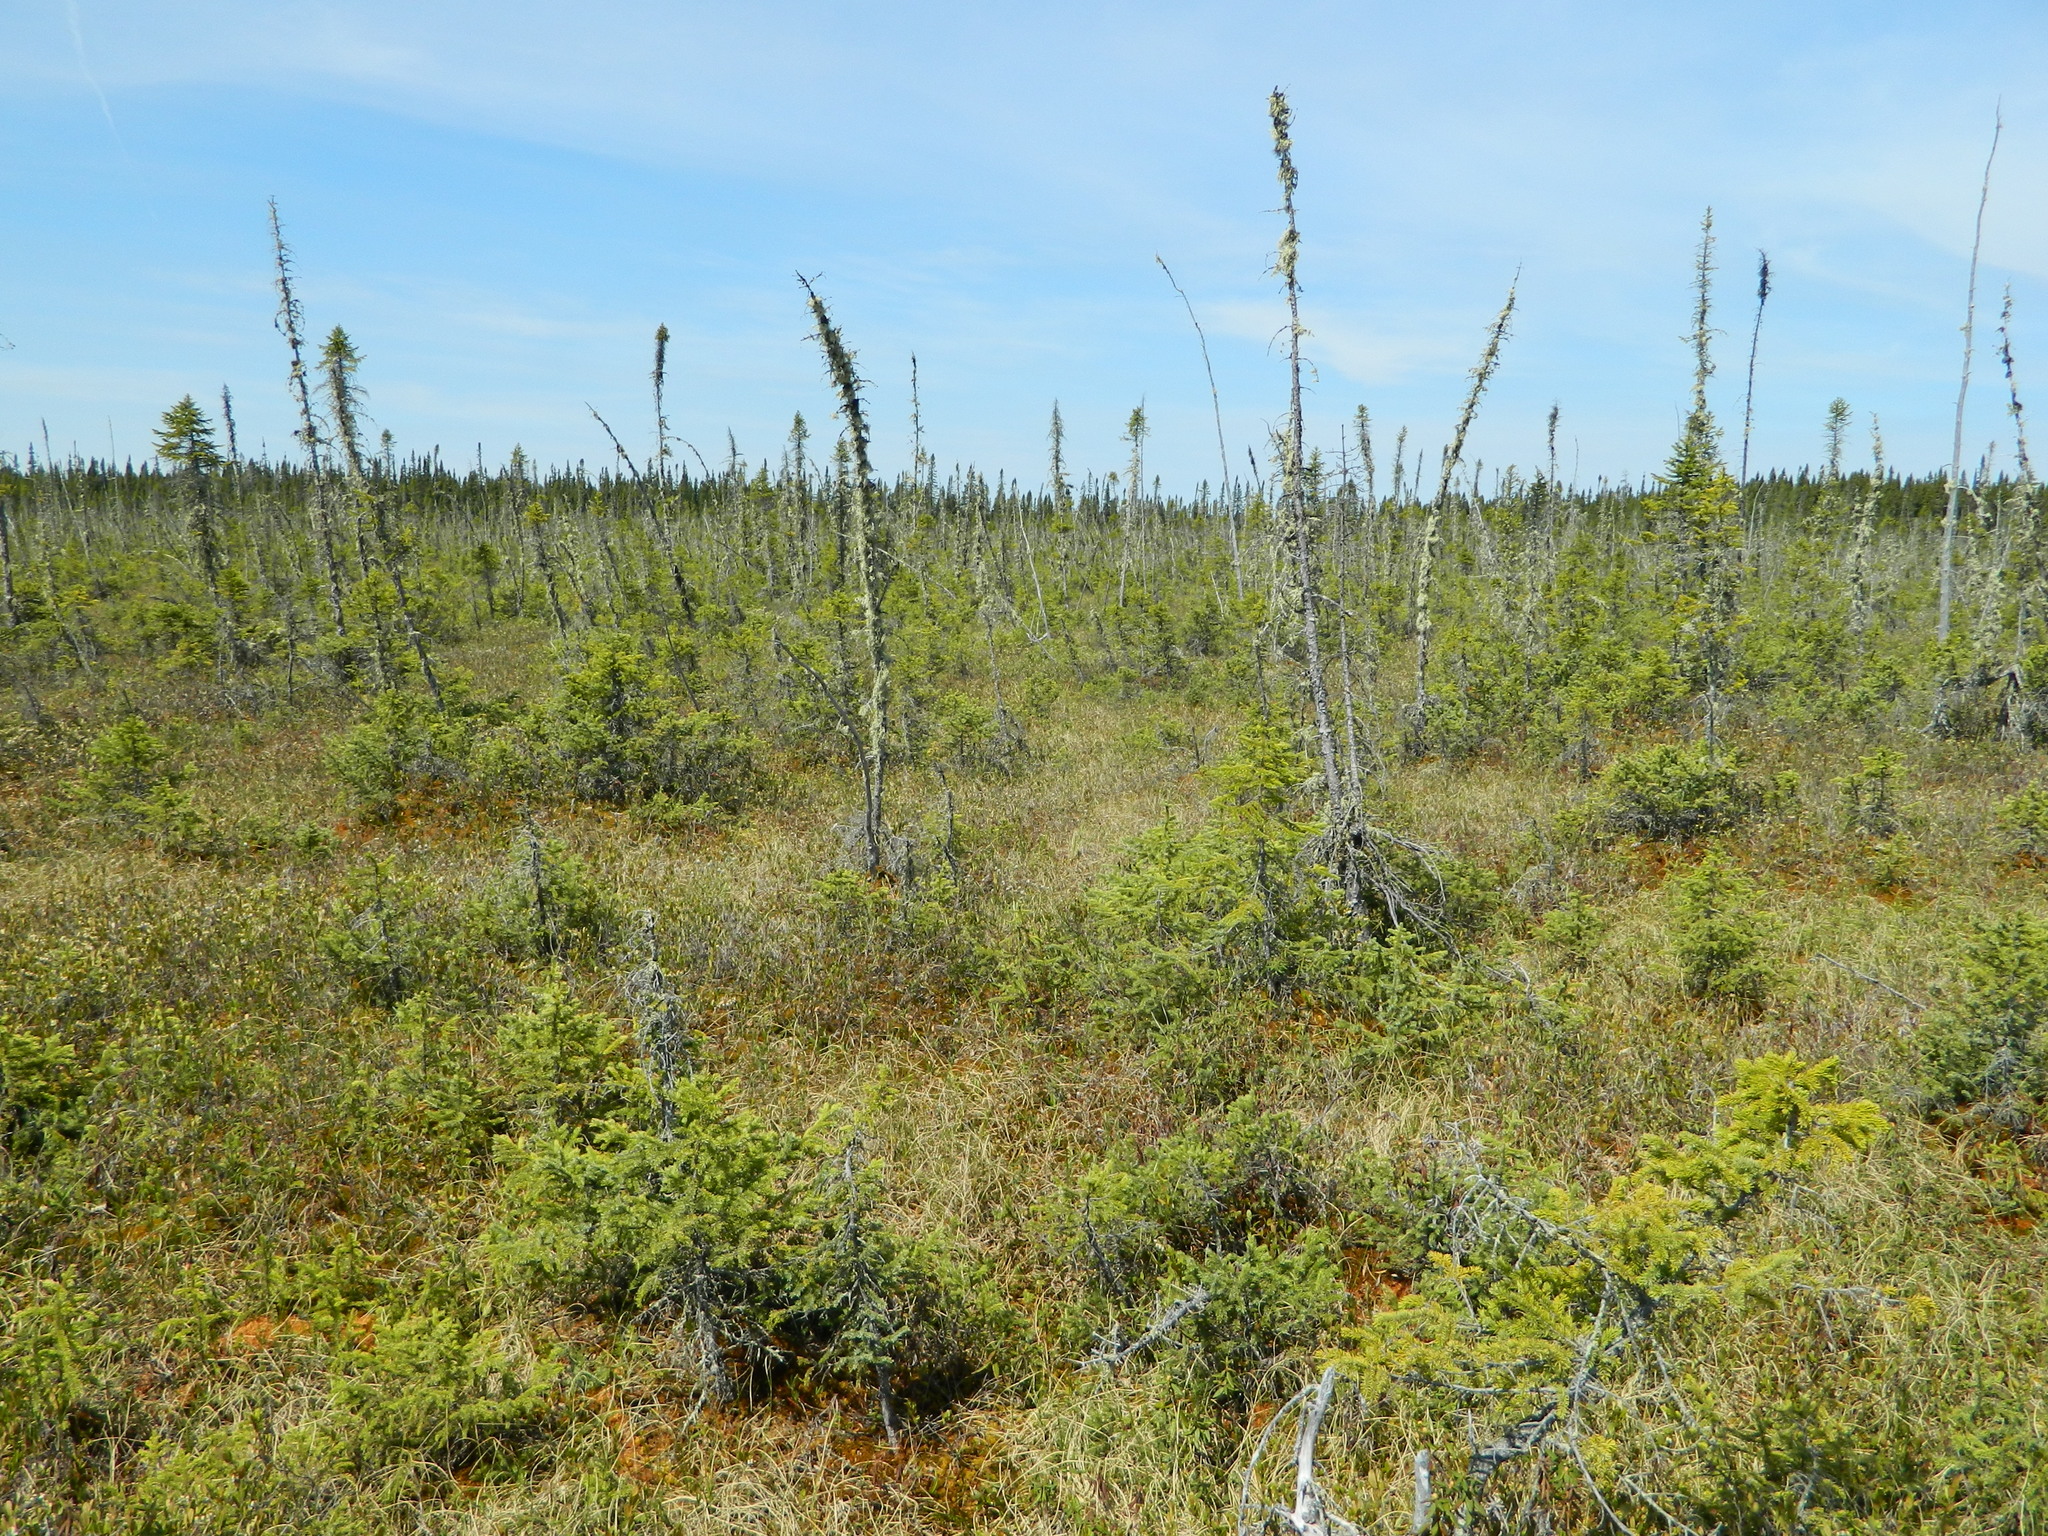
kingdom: Plantae
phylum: Tracheophyta
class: Pinopsida
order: Pinales
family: Pinaceae
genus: Picea
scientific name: Picea mariana
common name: Black spruce
